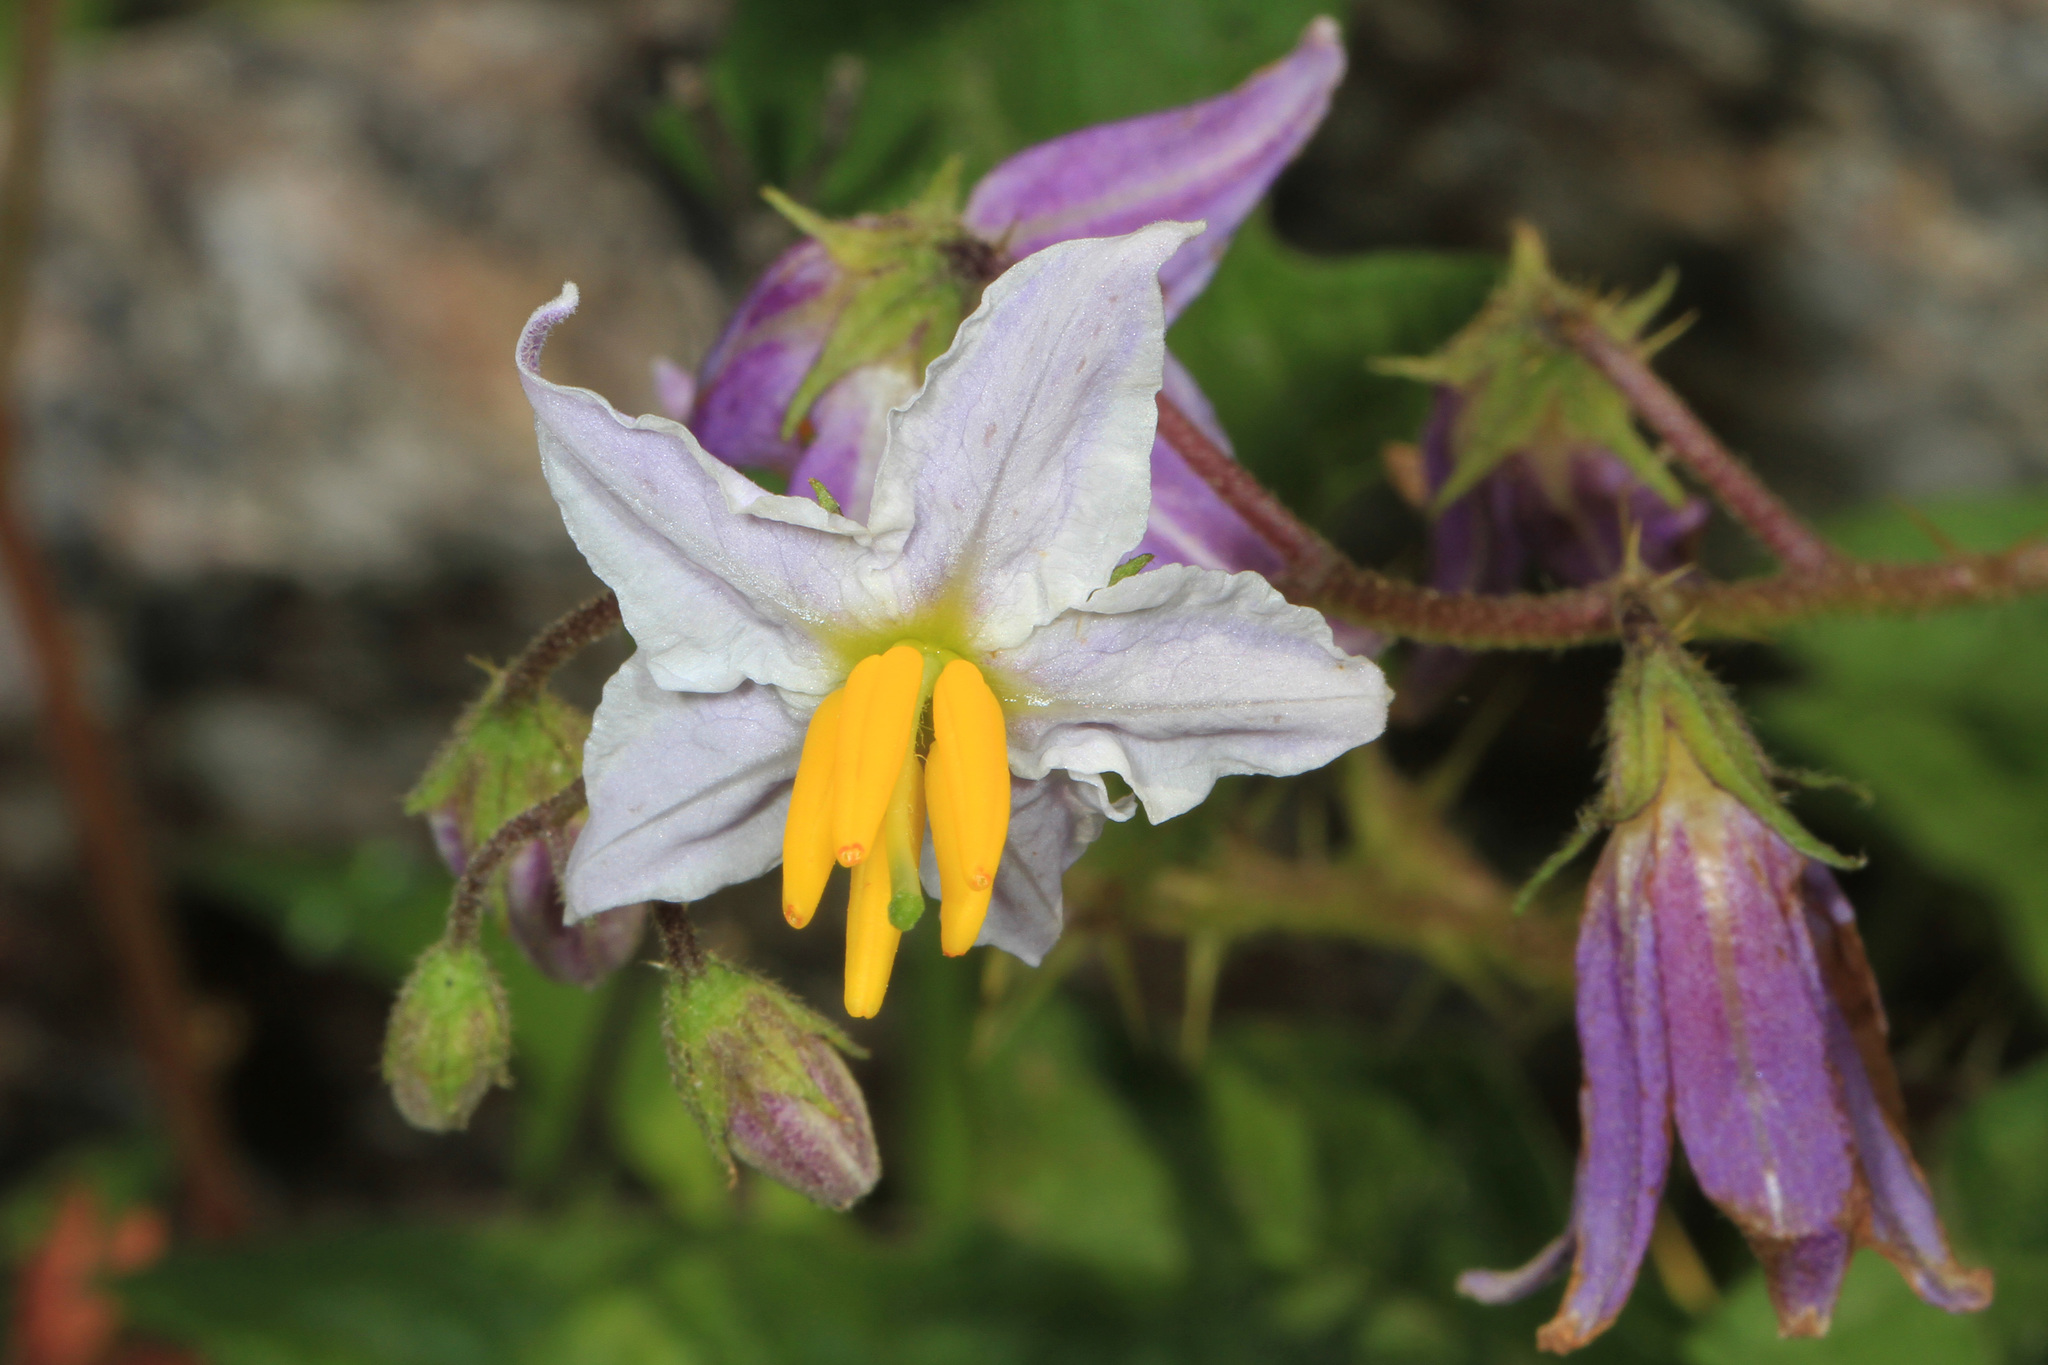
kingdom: Plantae
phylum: Tracheophyta
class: Magnoliopsida
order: Solanales
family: Solanaceae
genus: Solanum
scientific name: Solanum carolinense
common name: Horse-nettle
